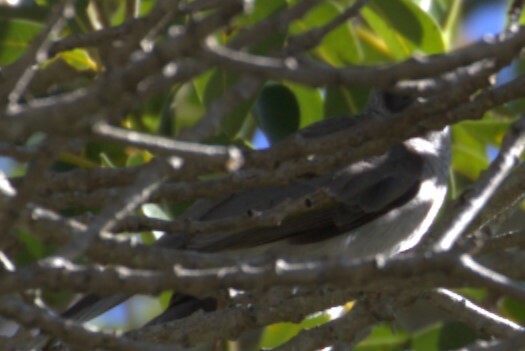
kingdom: Animalia
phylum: Chordata
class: Aves
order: Passeriformes
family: Meliphagidae
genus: Manorina
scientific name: Manorina melanocephala
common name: Noisy miner
